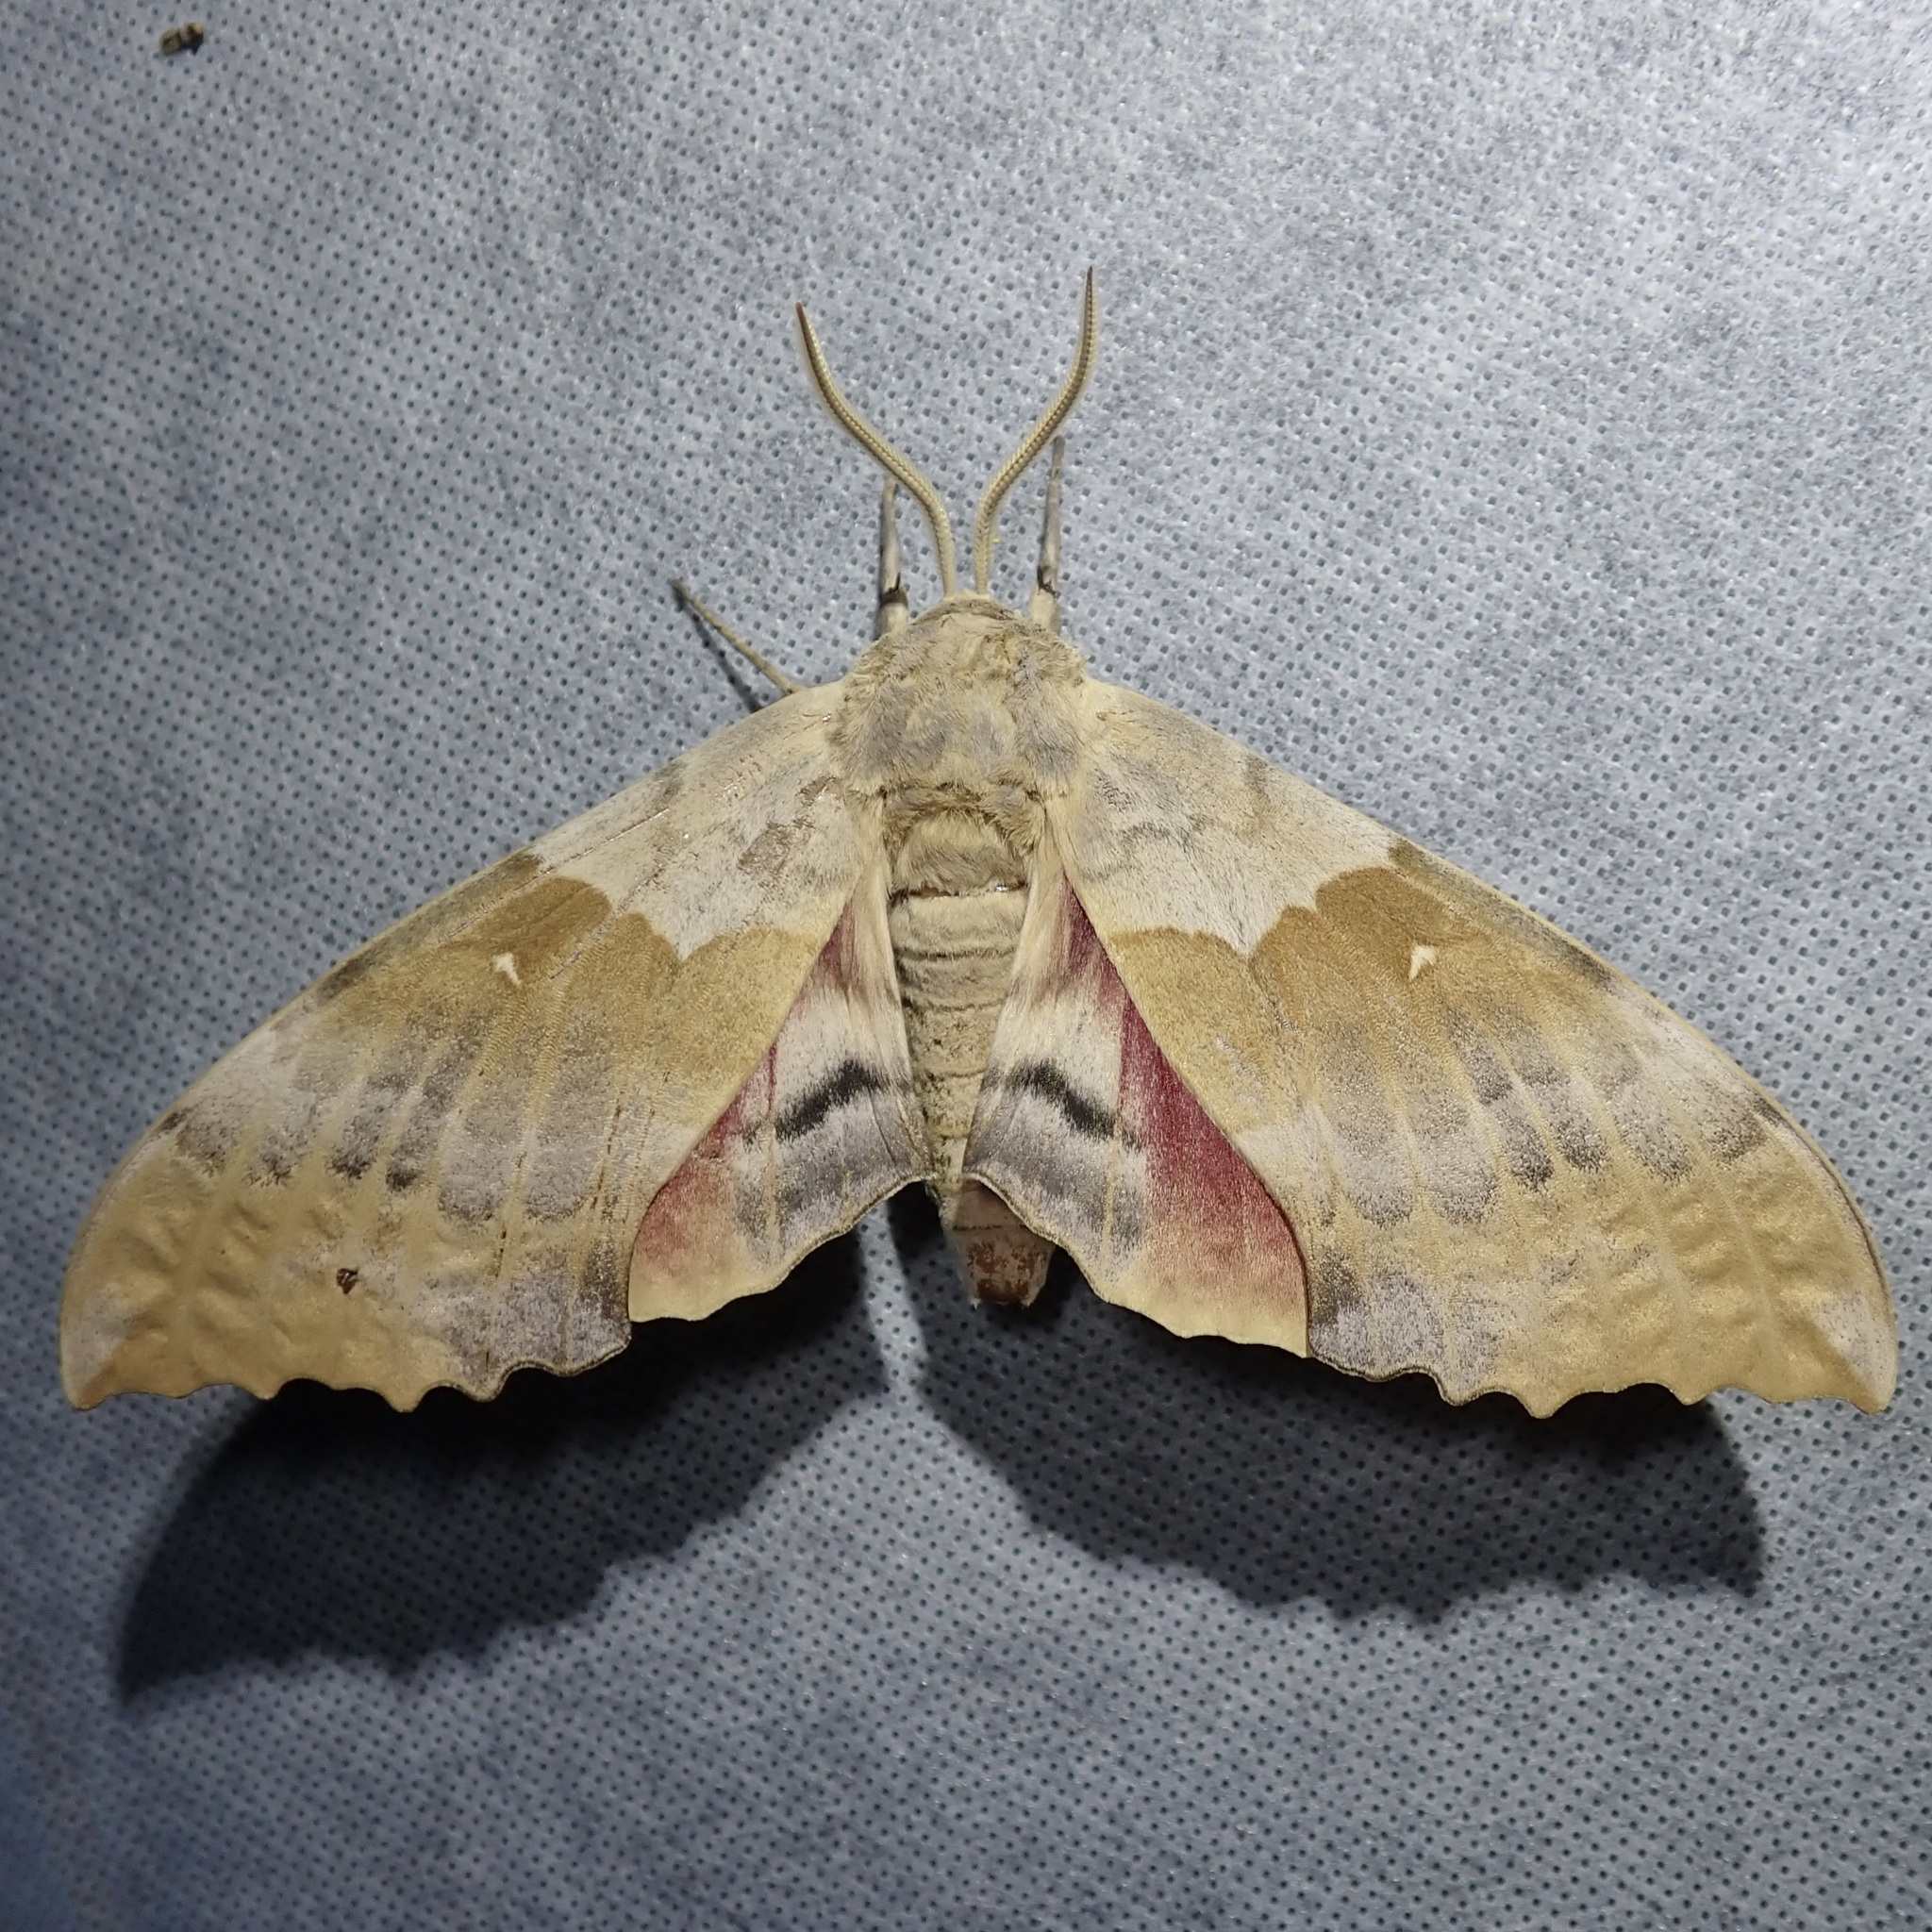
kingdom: Animalia
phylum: Arthropoda
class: Insecta
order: Lepidoptera
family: Sphingidae
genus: Pachysphinx
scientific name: Pachysphinx occidentalis
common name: Western poplar sphinx
